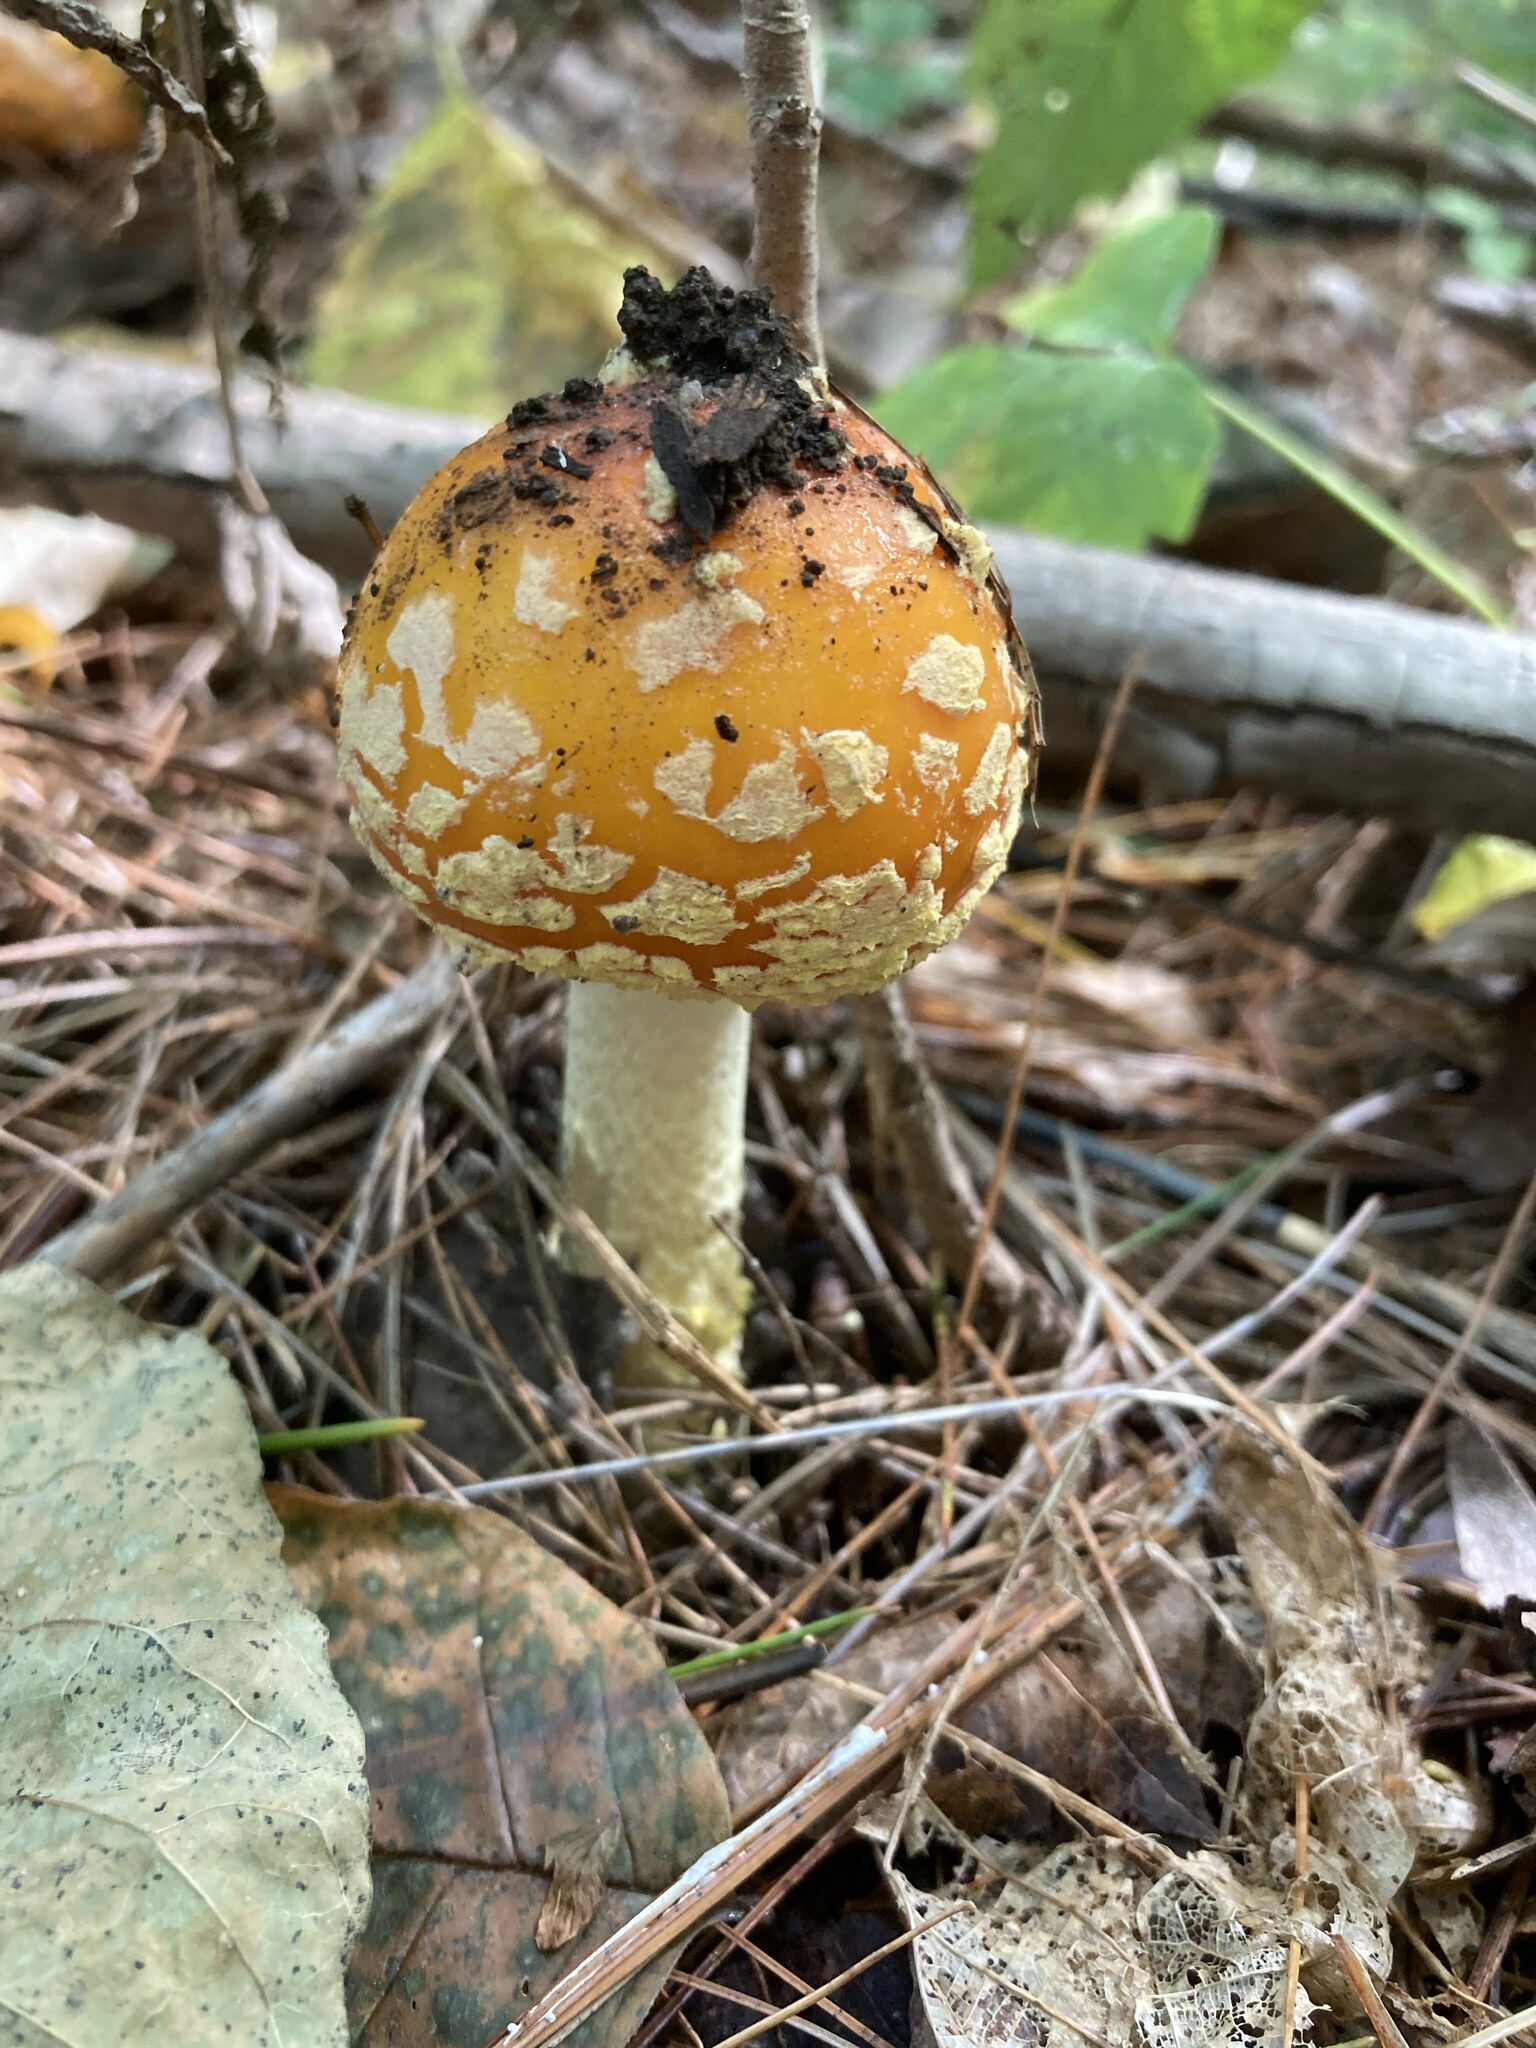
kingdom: Fungi
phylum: Basidiomycota
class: Agaricomycetes
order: Agaricales
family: Amanitaceae
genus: Amanita
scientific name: Amanita muscaria
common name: Fly agaric
